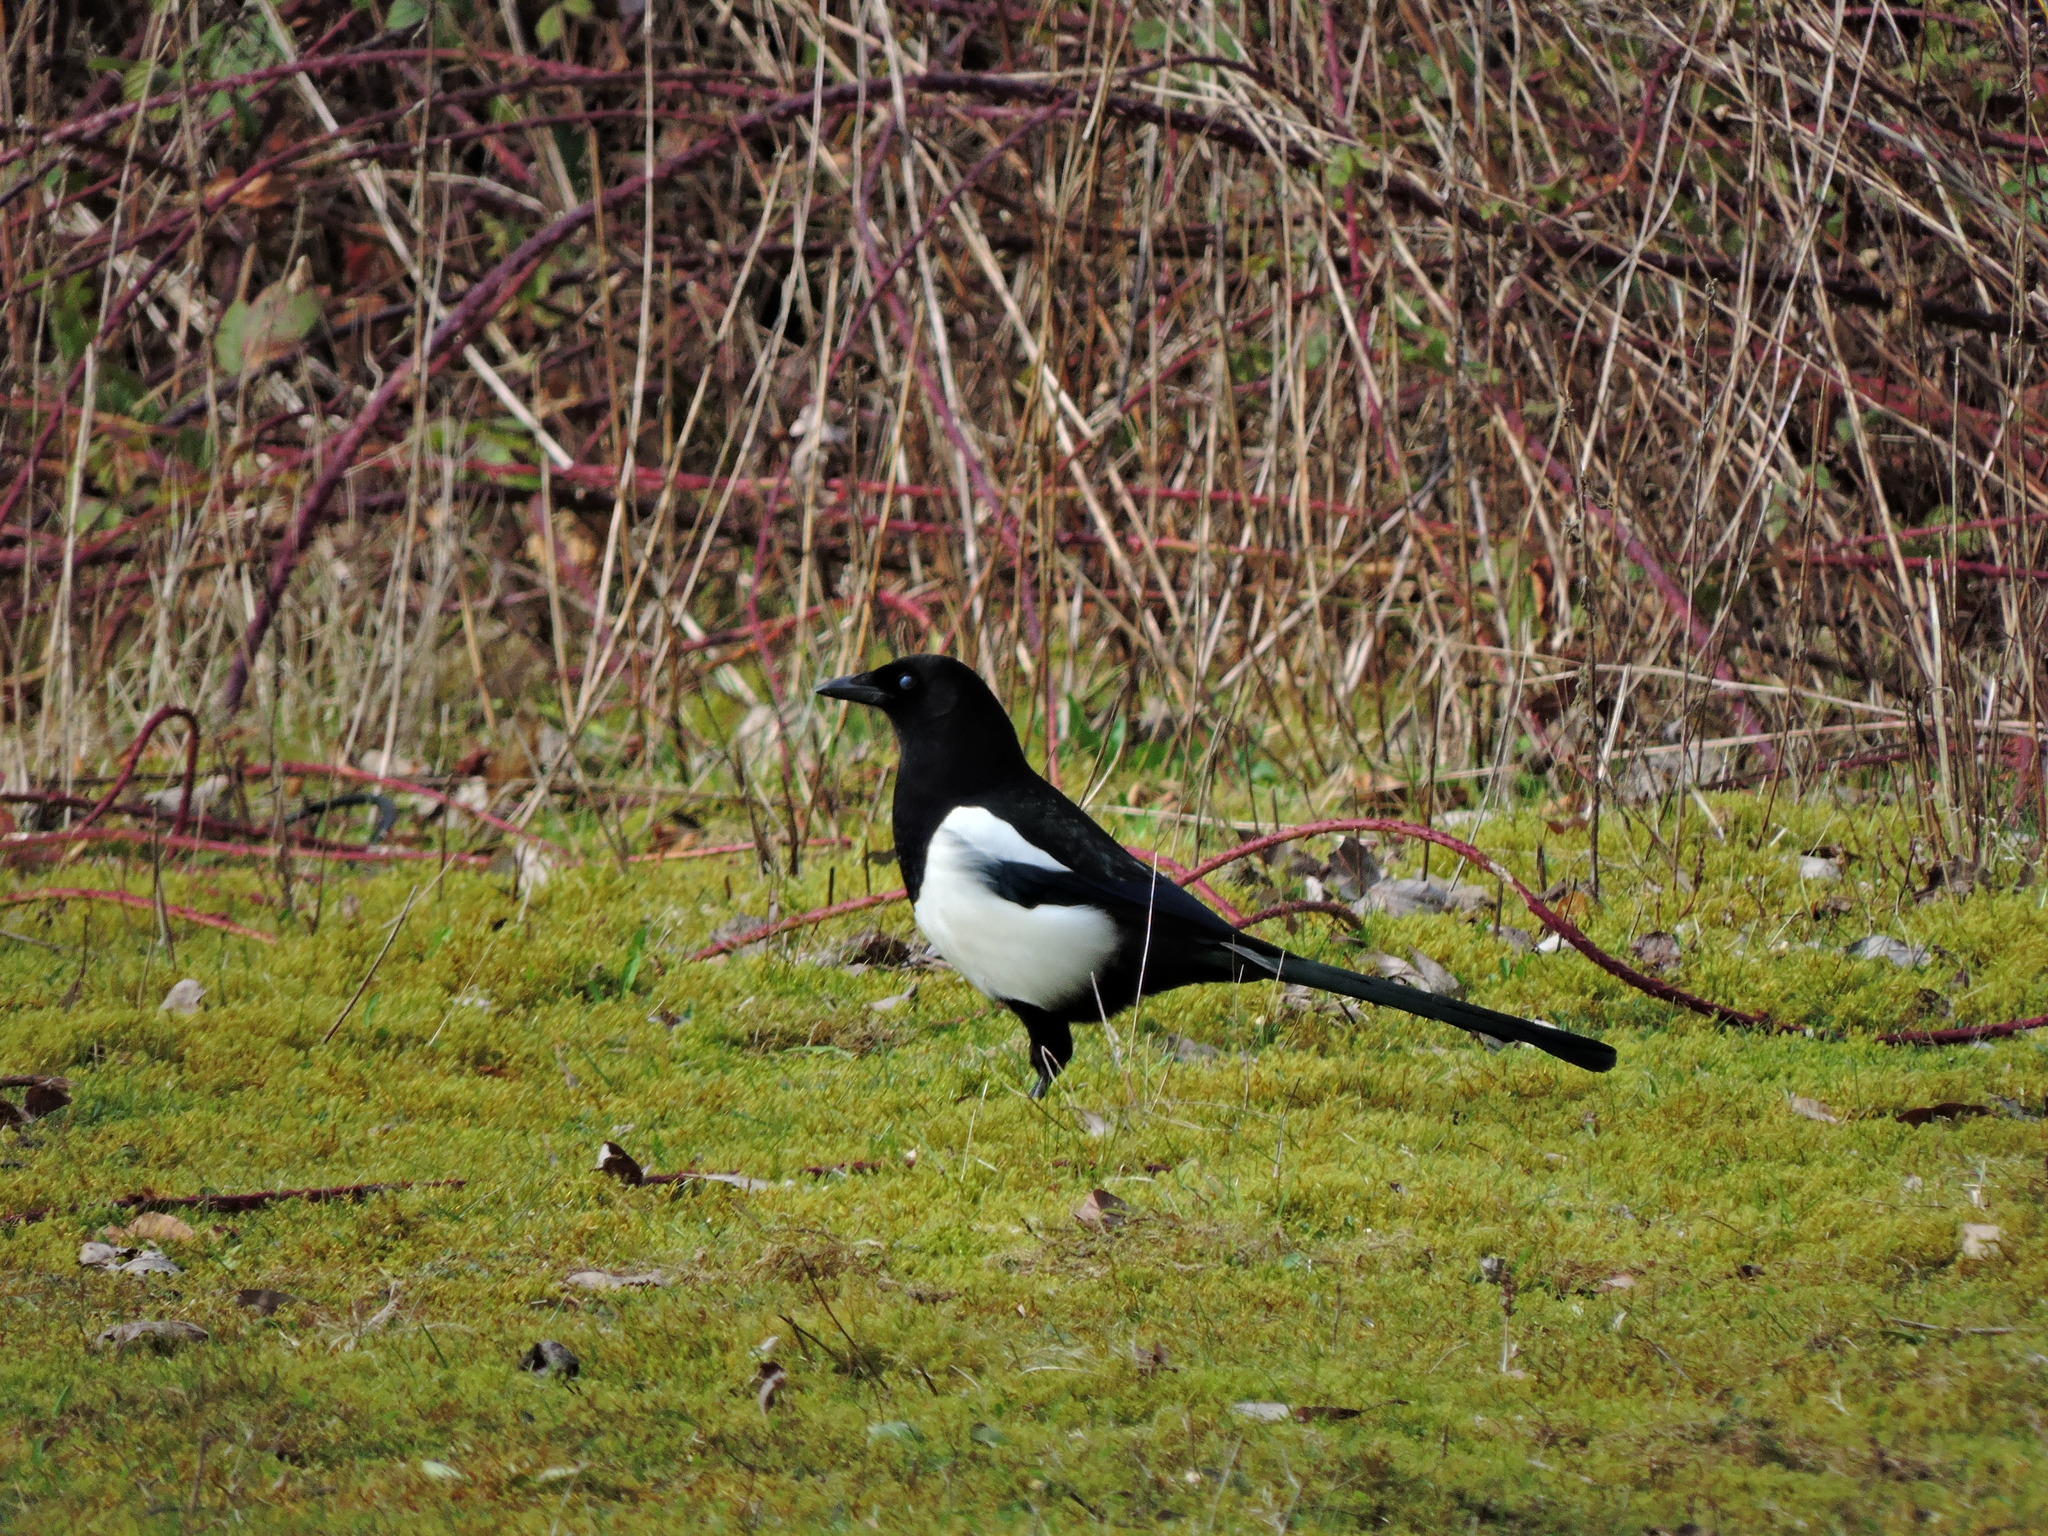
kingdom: Animalia
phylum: Chordata
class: Aves
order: Passeriformes
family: Corvidae
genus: Pica
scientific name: Pica pica
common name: Eurasian magpie
